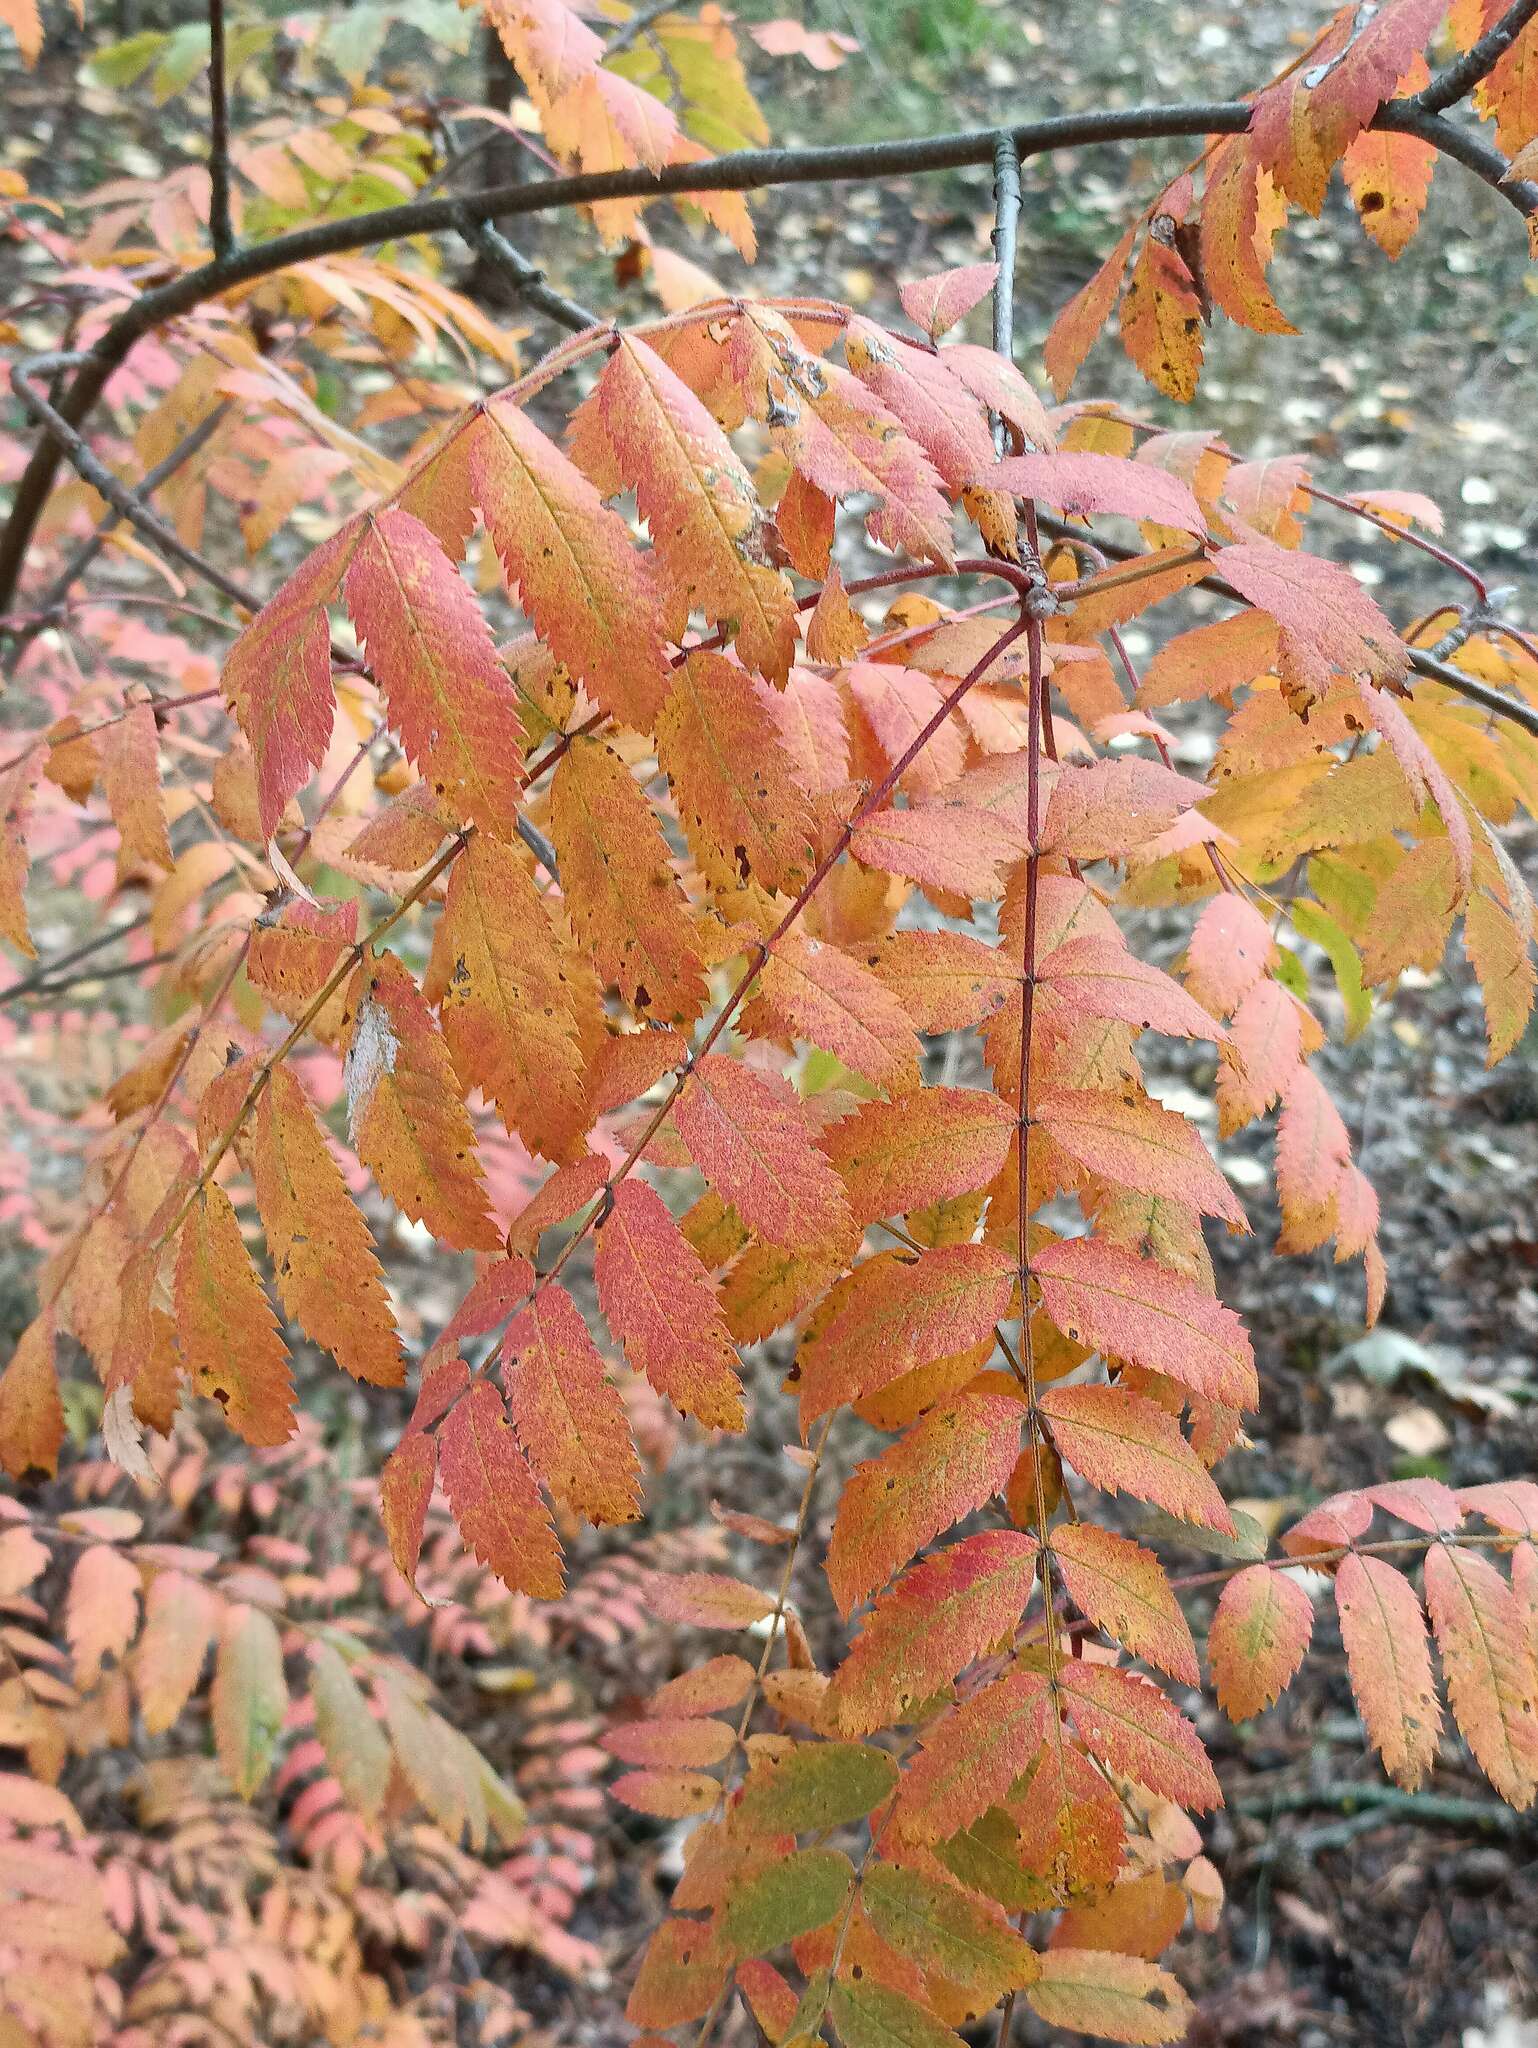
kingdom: Plantae
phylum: Tracheophyta
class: Magnoliopsida
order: Rosales
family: Rosaceae
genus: Sorbus
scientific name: Sorbus aucuparia
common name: Rowan
